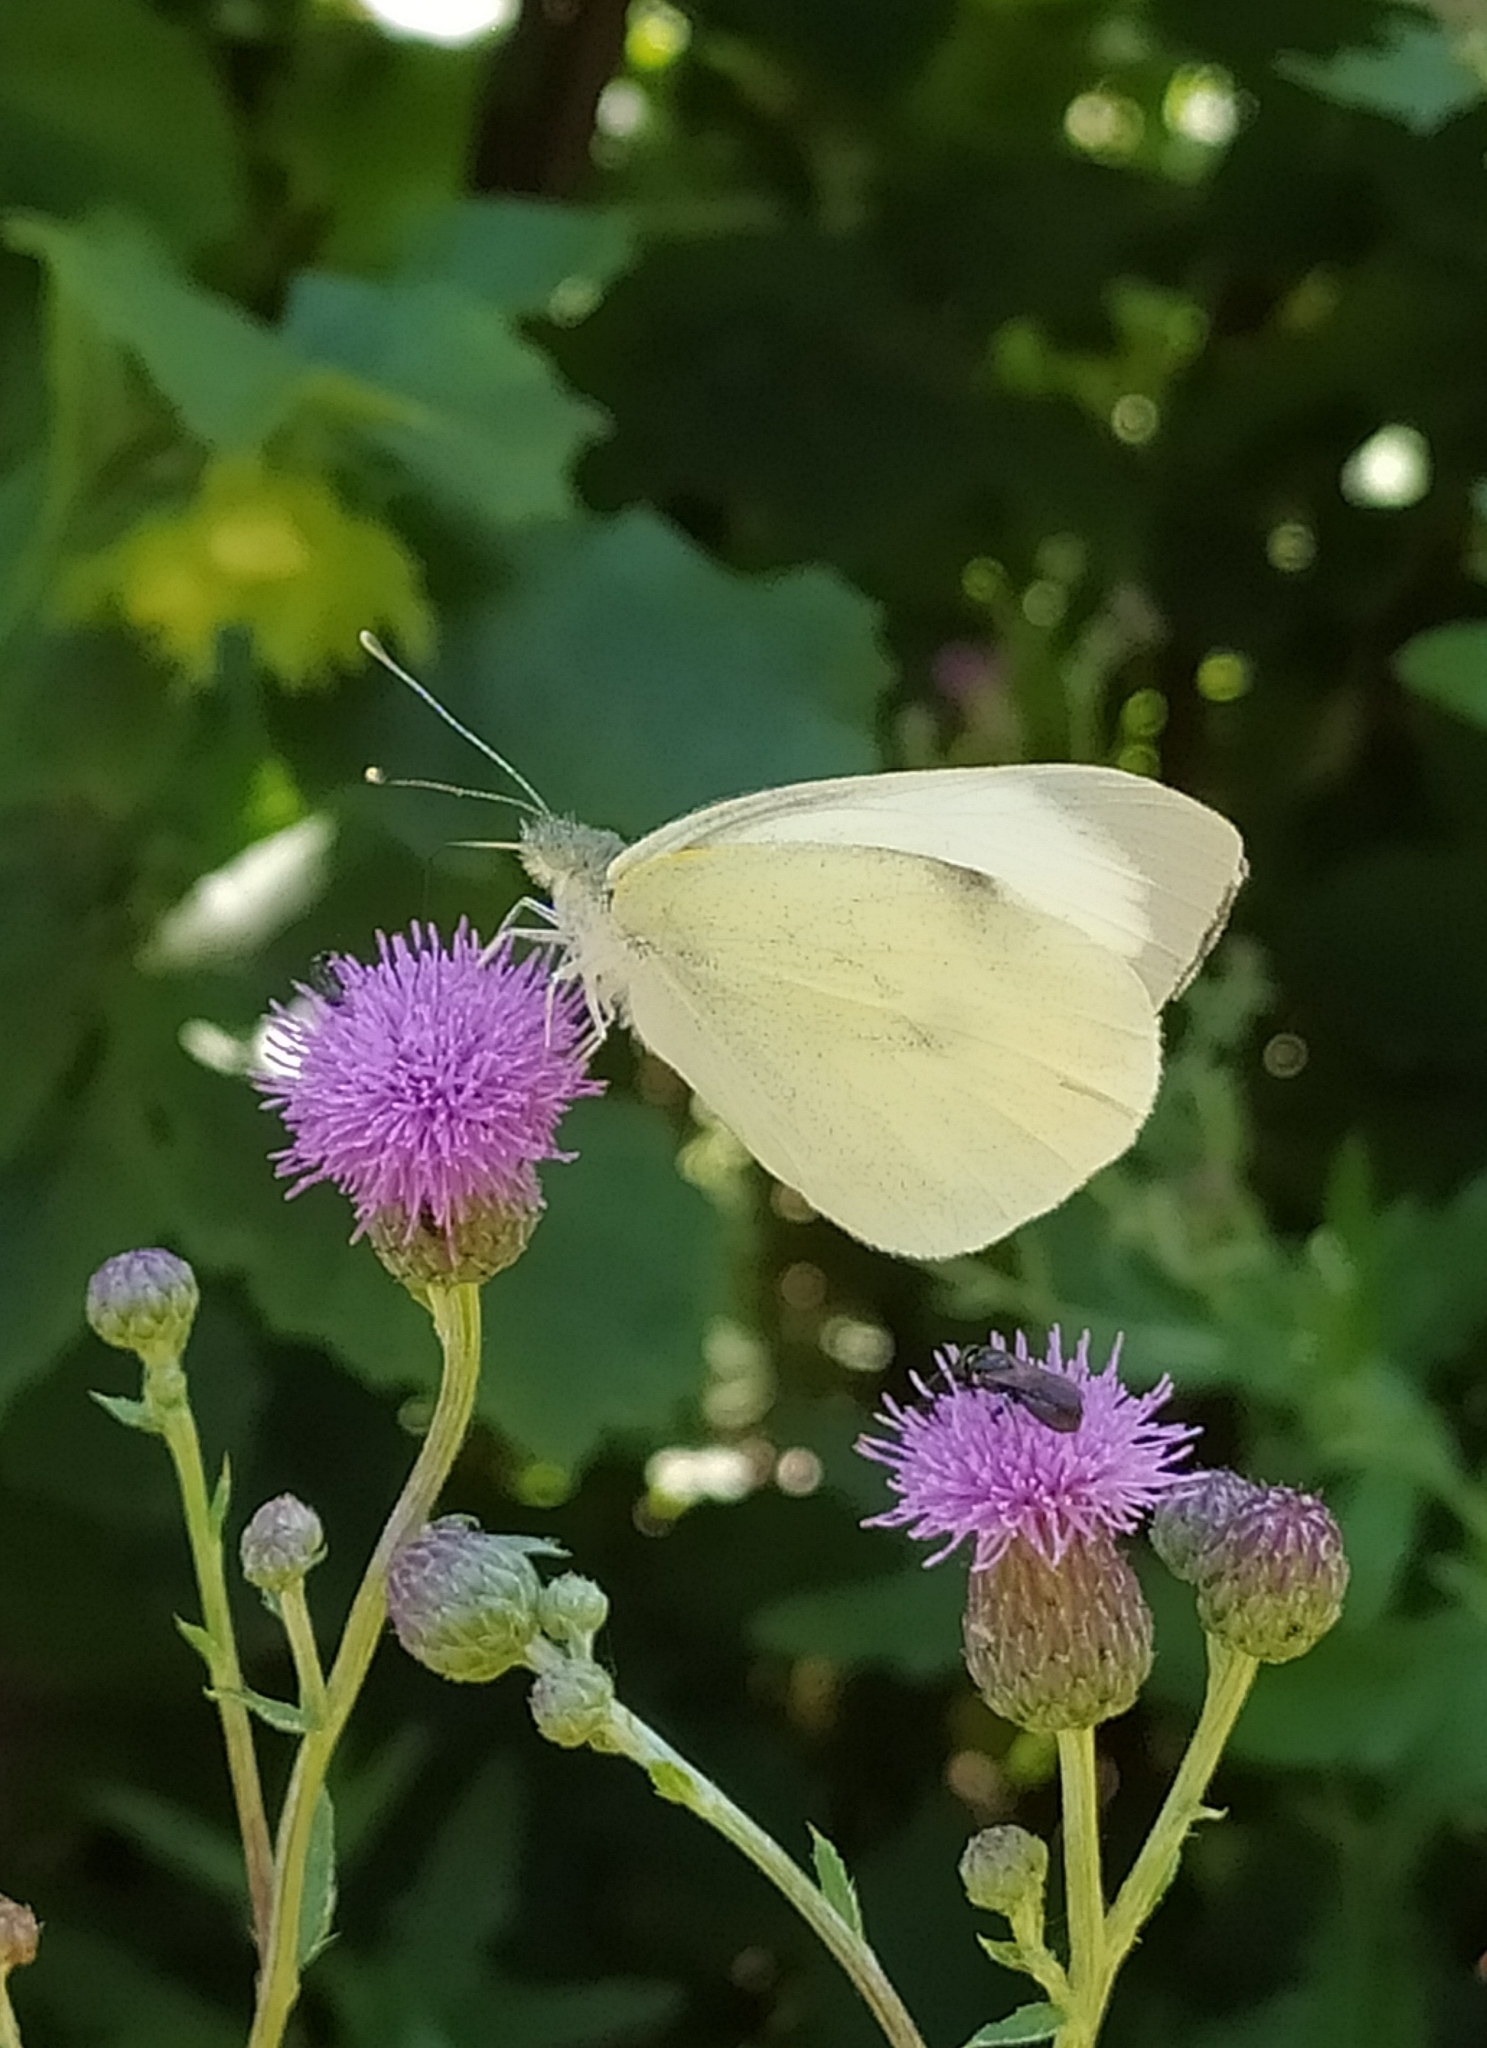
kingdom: Animalia
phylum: Arthropoda
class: Insecta
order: Lepidoptera
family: Pieridae
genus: Pieris
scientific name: Pieris brassicae
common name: Large white
